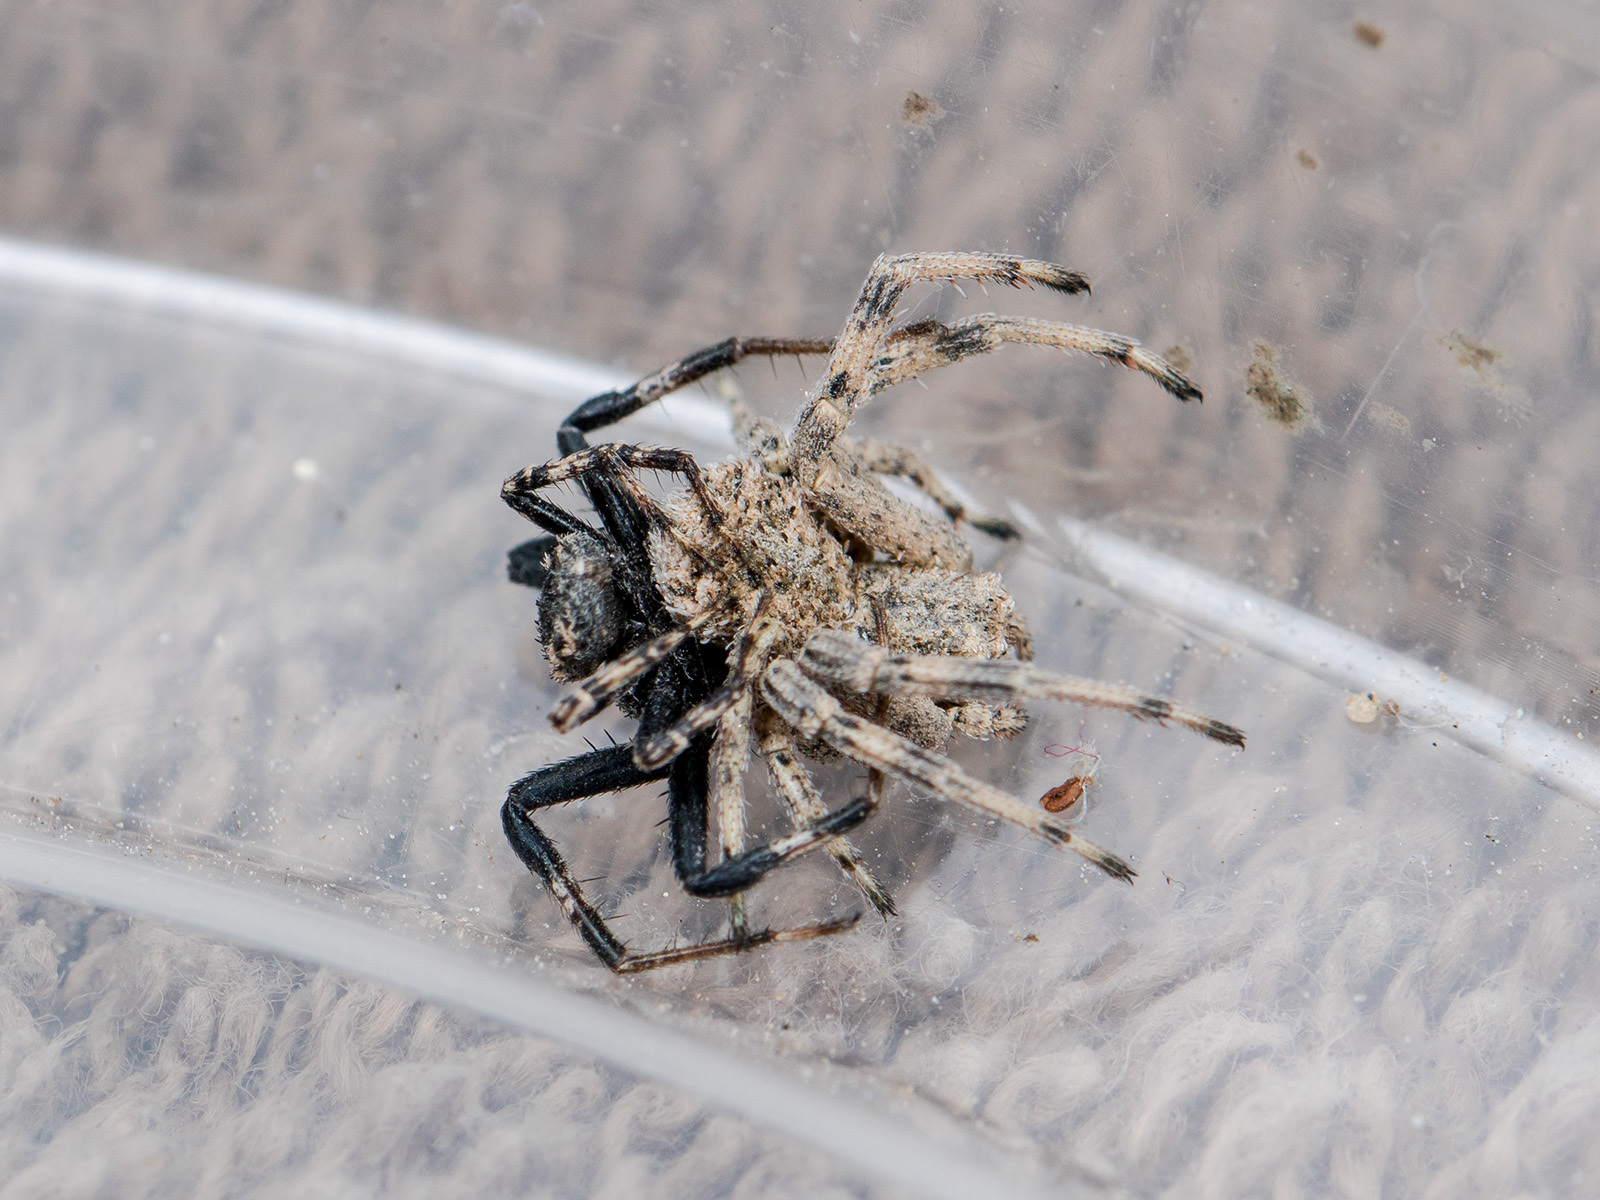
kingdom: Animalia
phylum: Arthropoda
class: Arachnida
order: Araneae
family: Thomisidae
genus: Ozyptila
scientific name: Ozyptila lugubris
